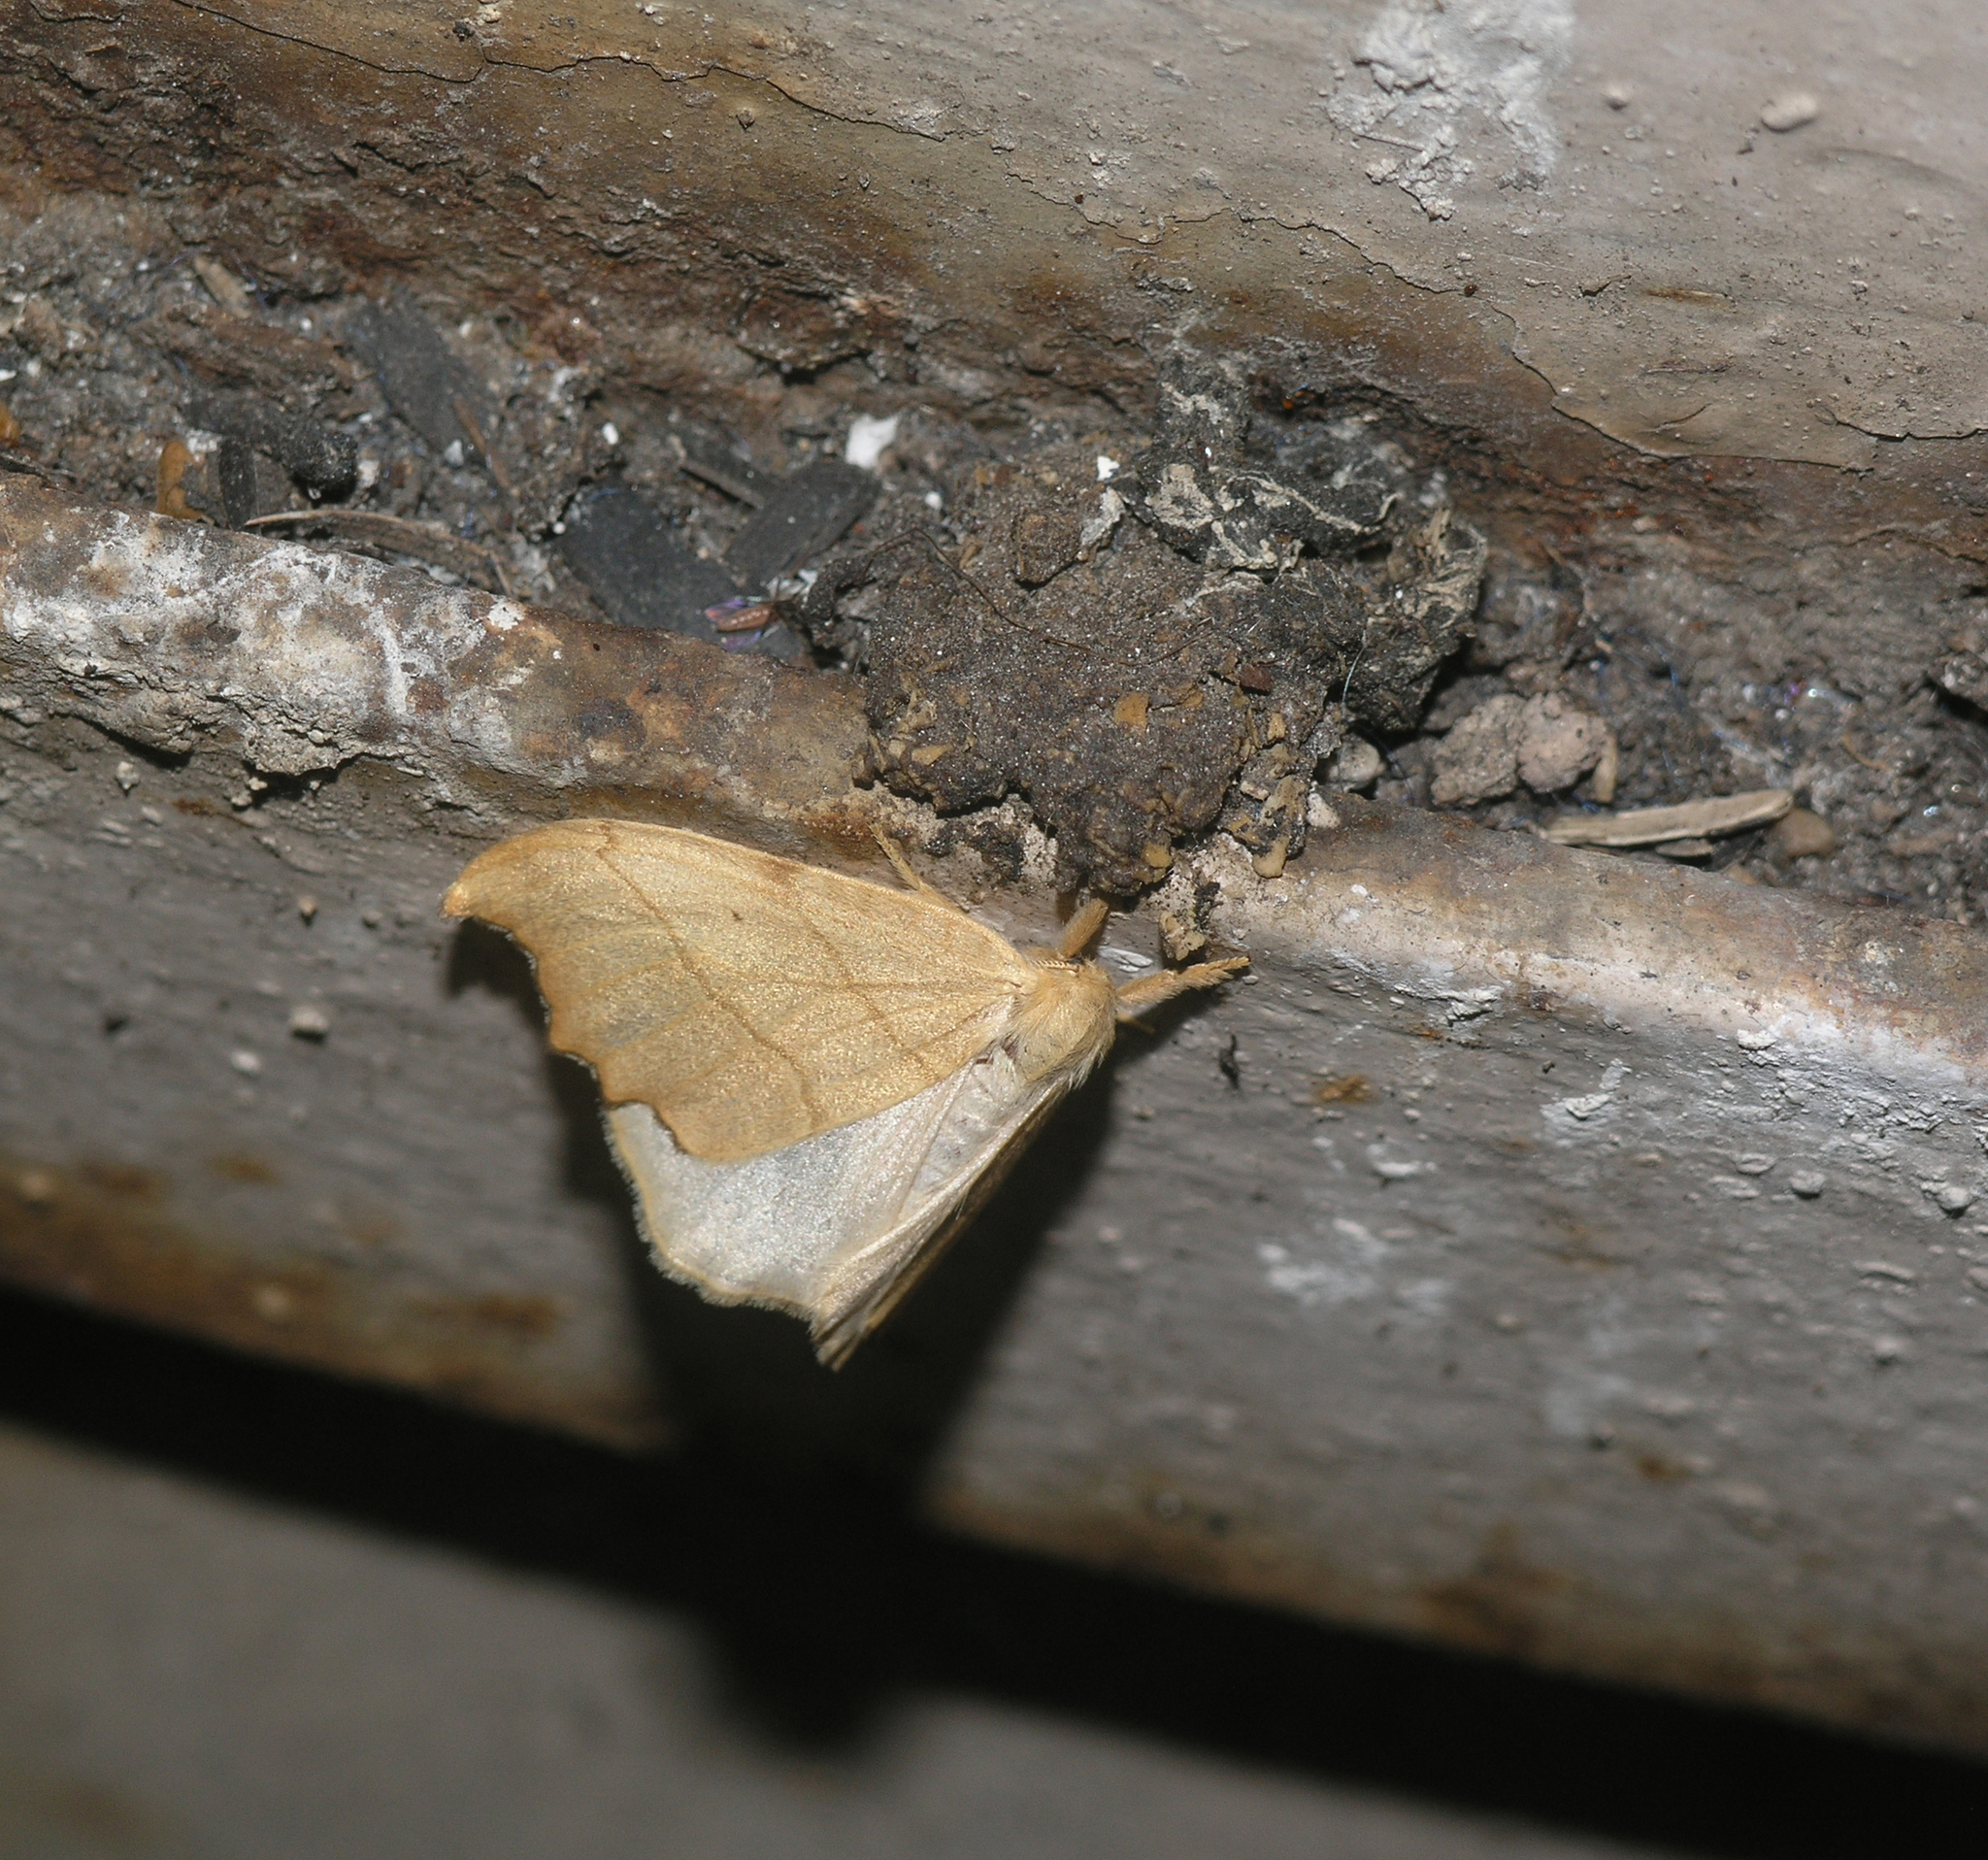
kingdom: Animalia
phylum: Arthropoda
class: Insecta
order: Lepidoptera
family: Drepanidae
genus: Falcaria
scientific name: Falcaria lacertinaria
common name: Scalloped hook-tip
